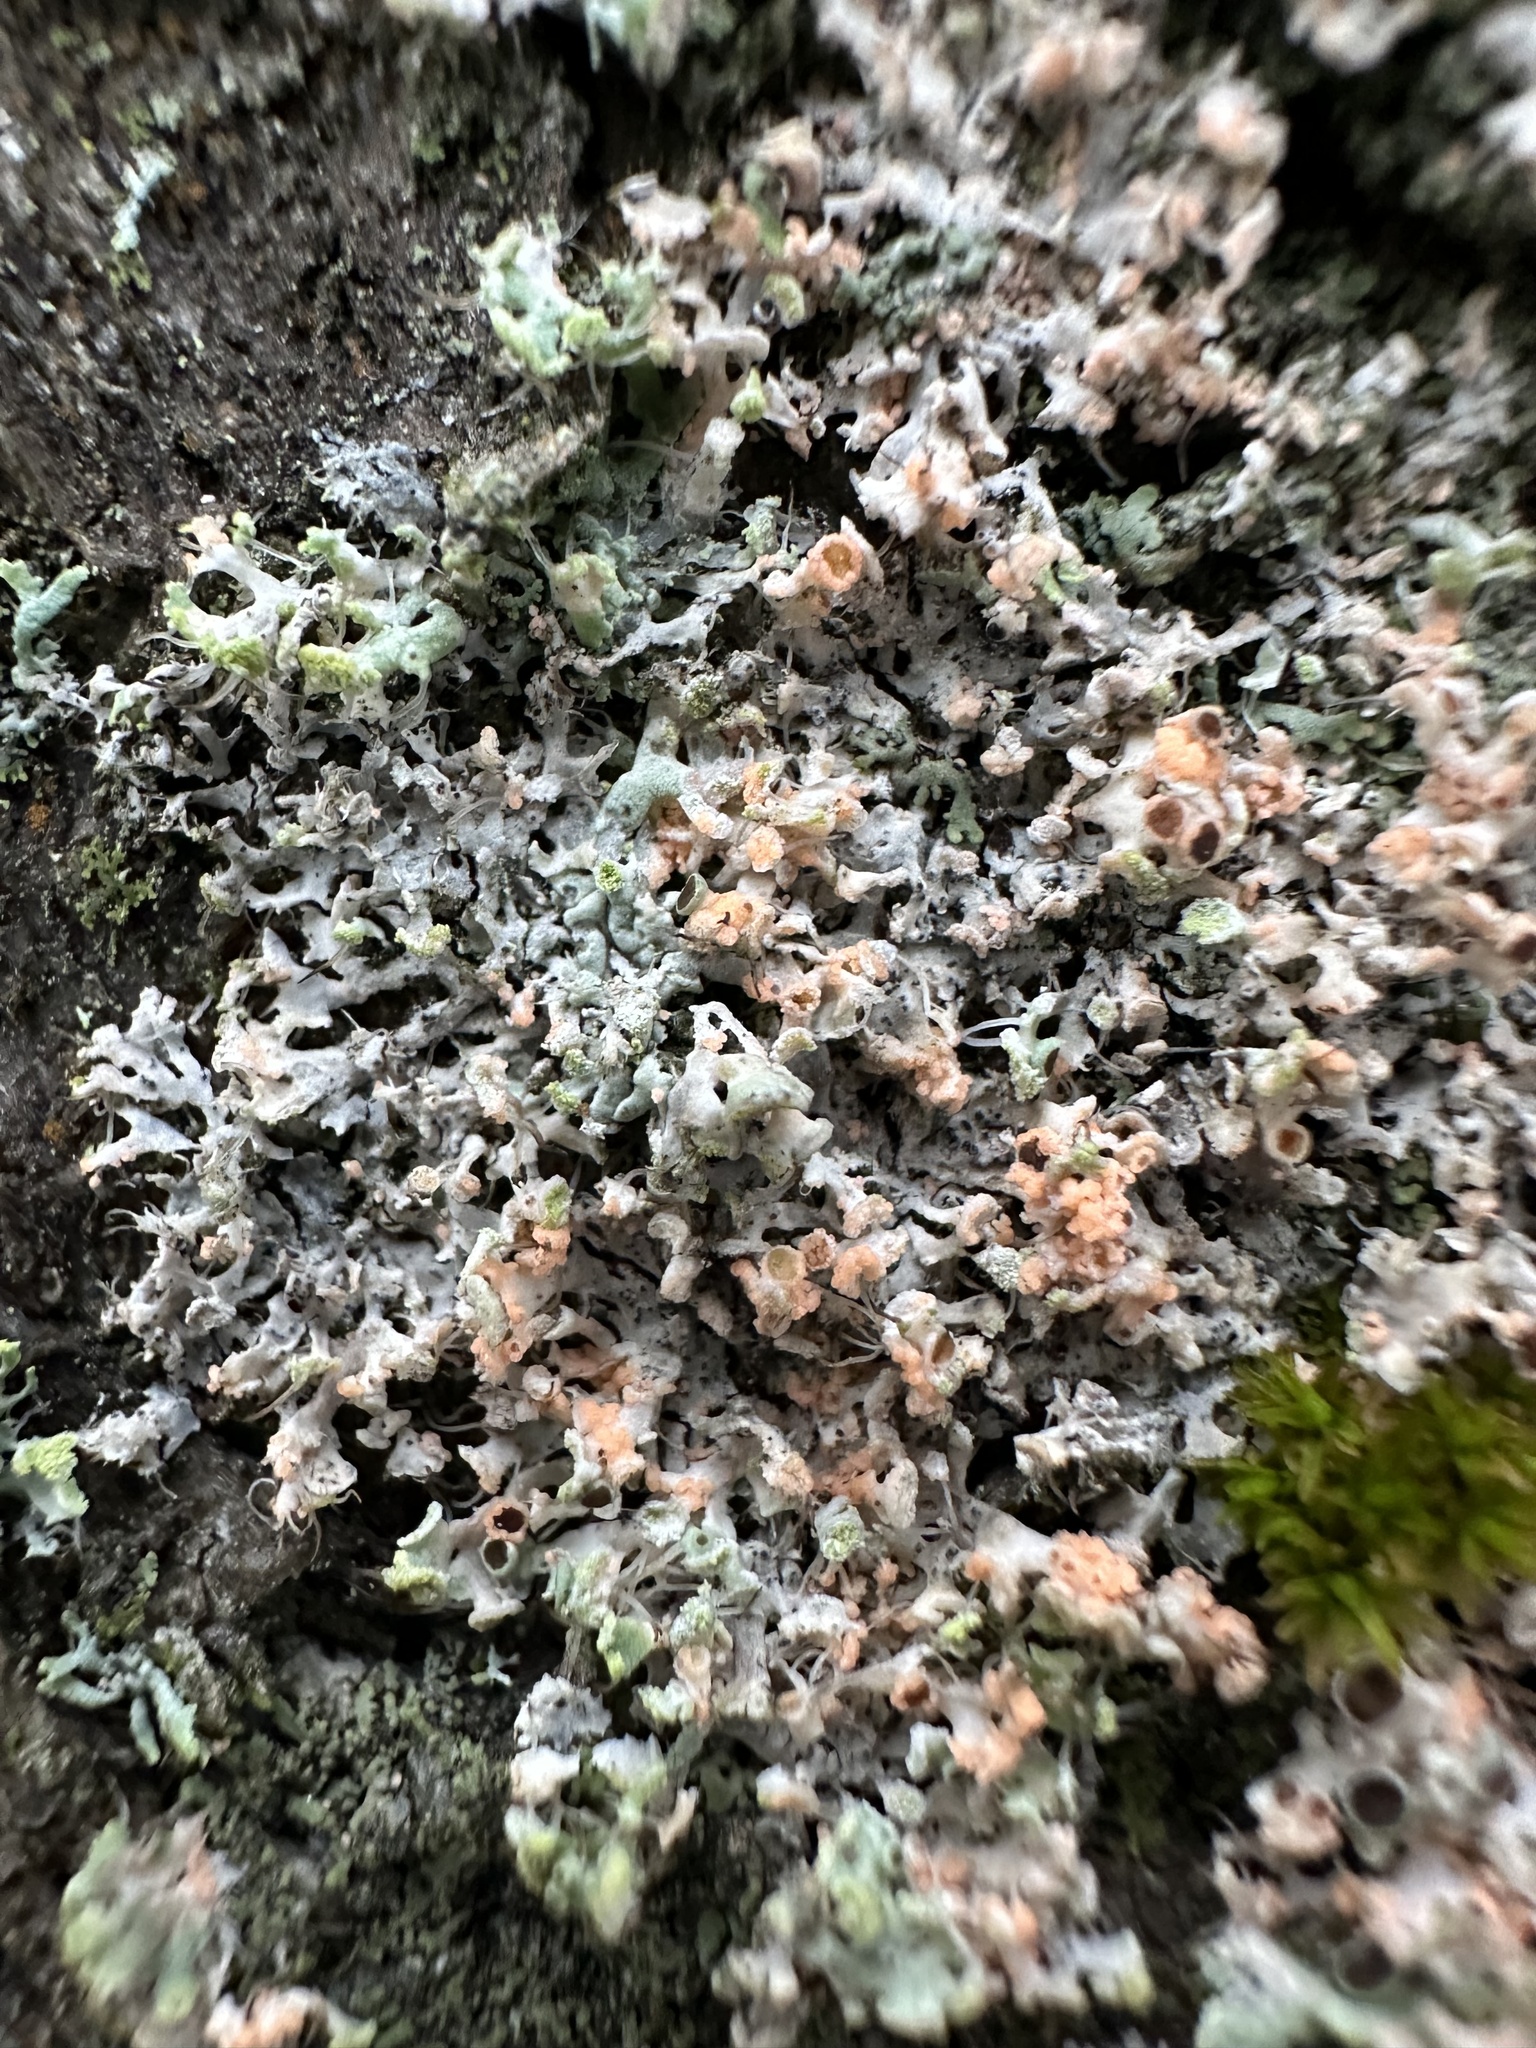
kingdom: Fungi
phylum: Basidiomycota
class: Agaricomycetes
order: Corticiales
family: Corticiaceae
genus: Erythricium
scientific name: Erythricium aurantiacum
